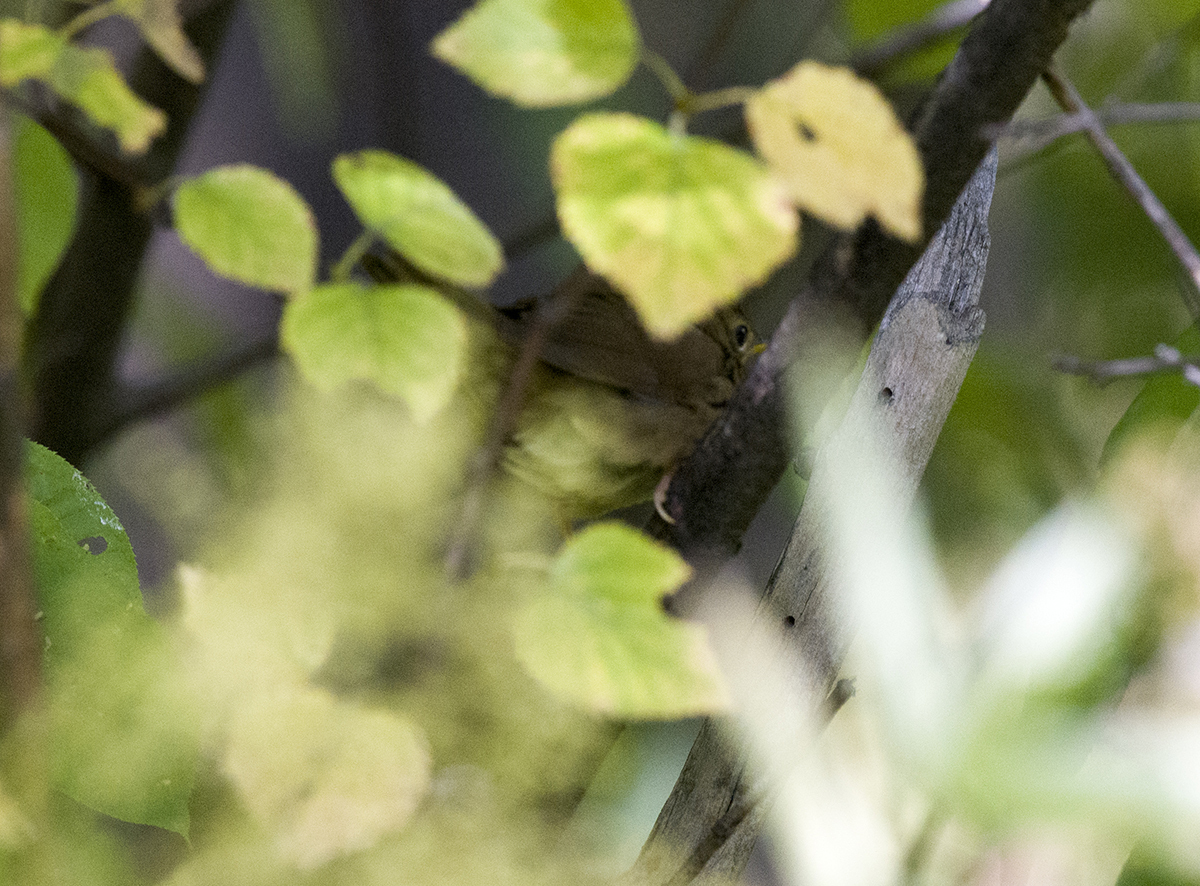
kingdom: Animalia
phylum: Chordata
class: Aves
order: Passeriformes
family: Locustellidae
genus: Locustella
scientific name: Locustella tacsanowskia
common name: Chinese bush warbler
